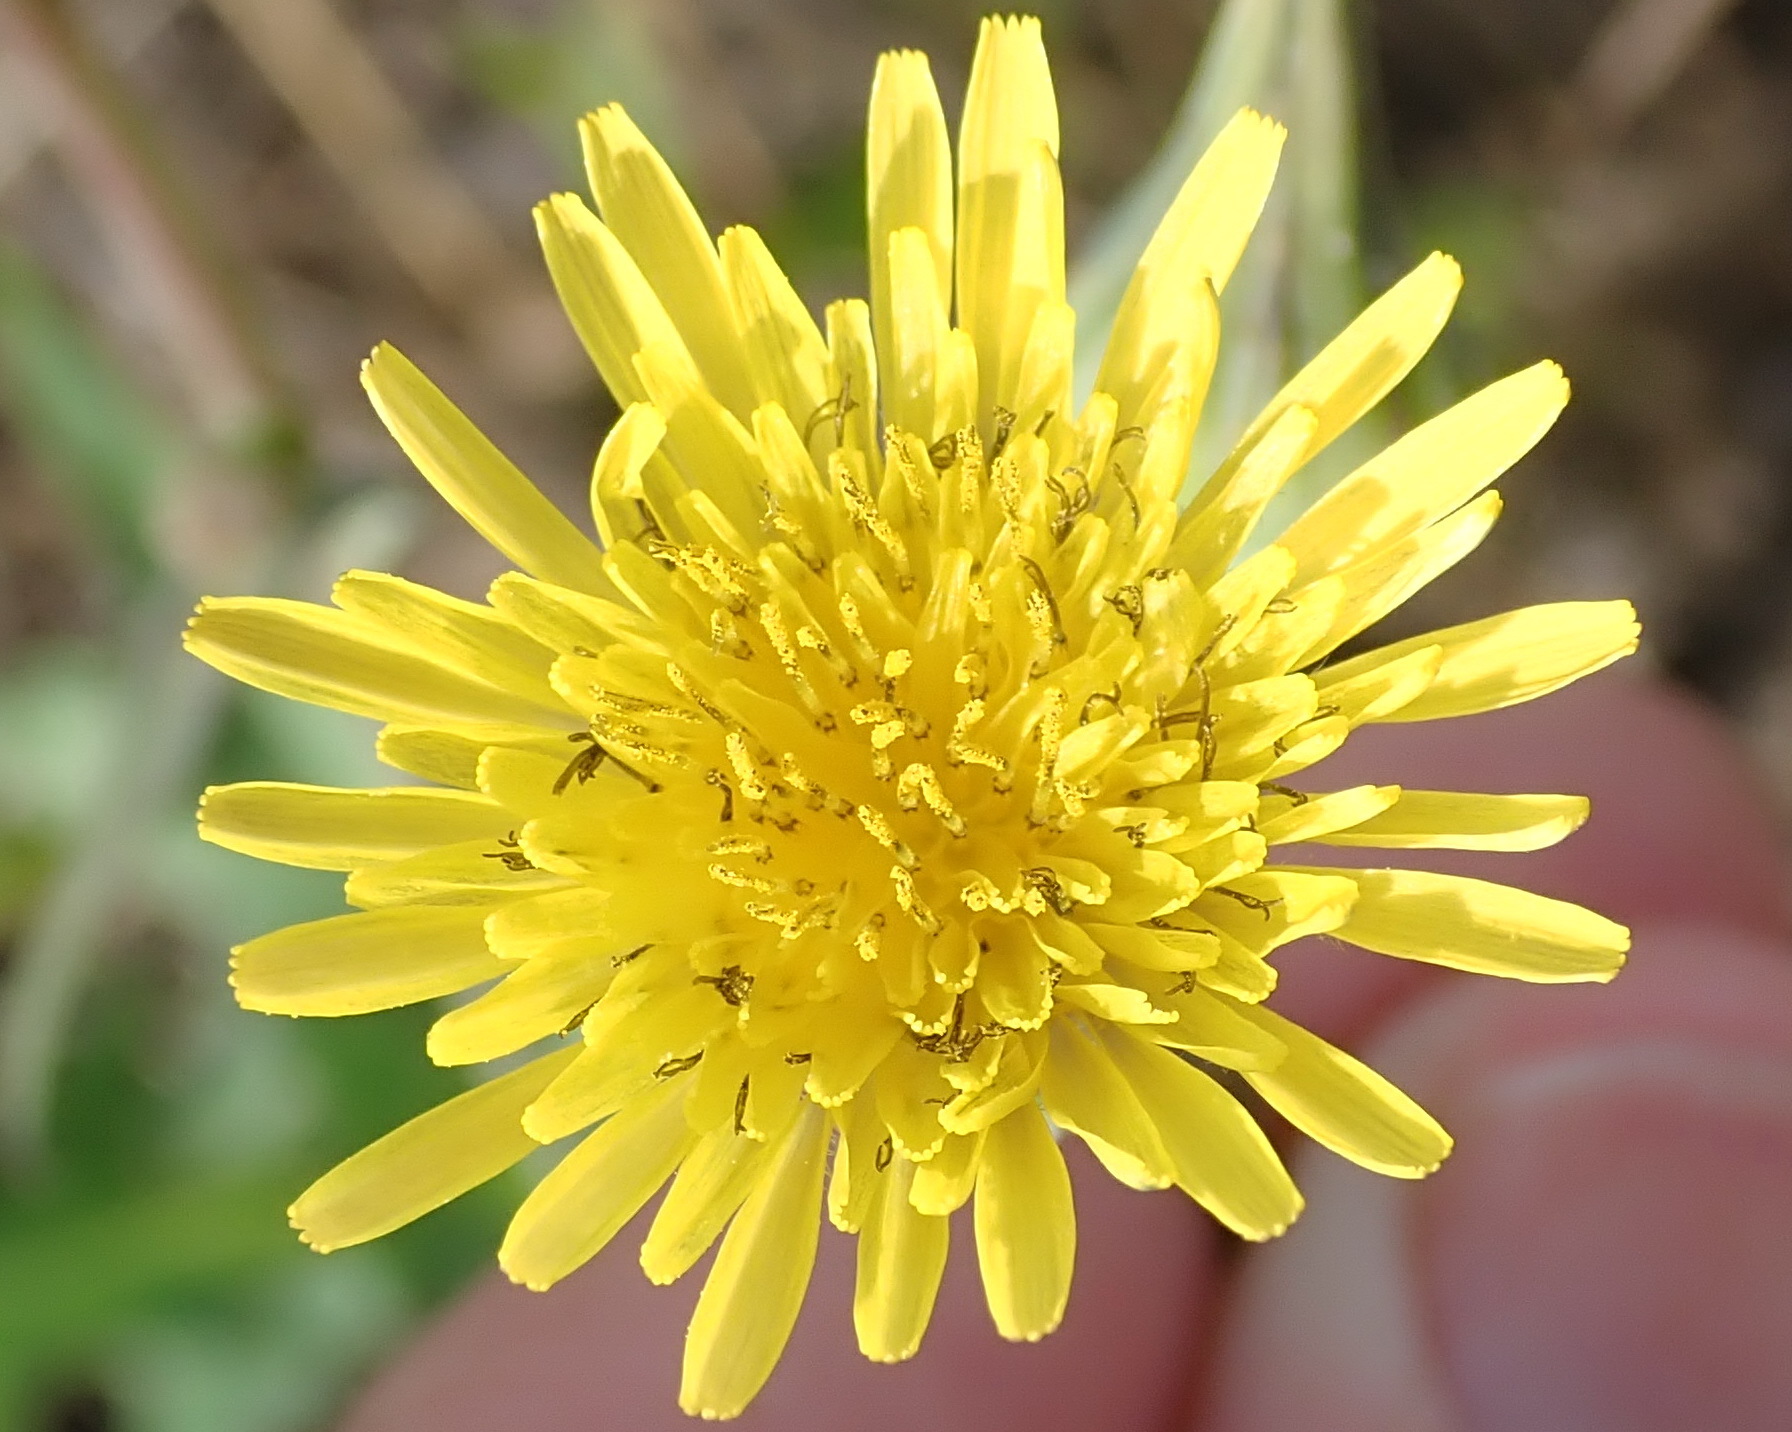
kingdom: Plantae
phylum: Tracheophyta
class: Magnoliopsida
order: Asterales
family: Asteraceae
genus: Sonchus
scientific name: Sonchus oleraceus
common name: Common sowthistle
